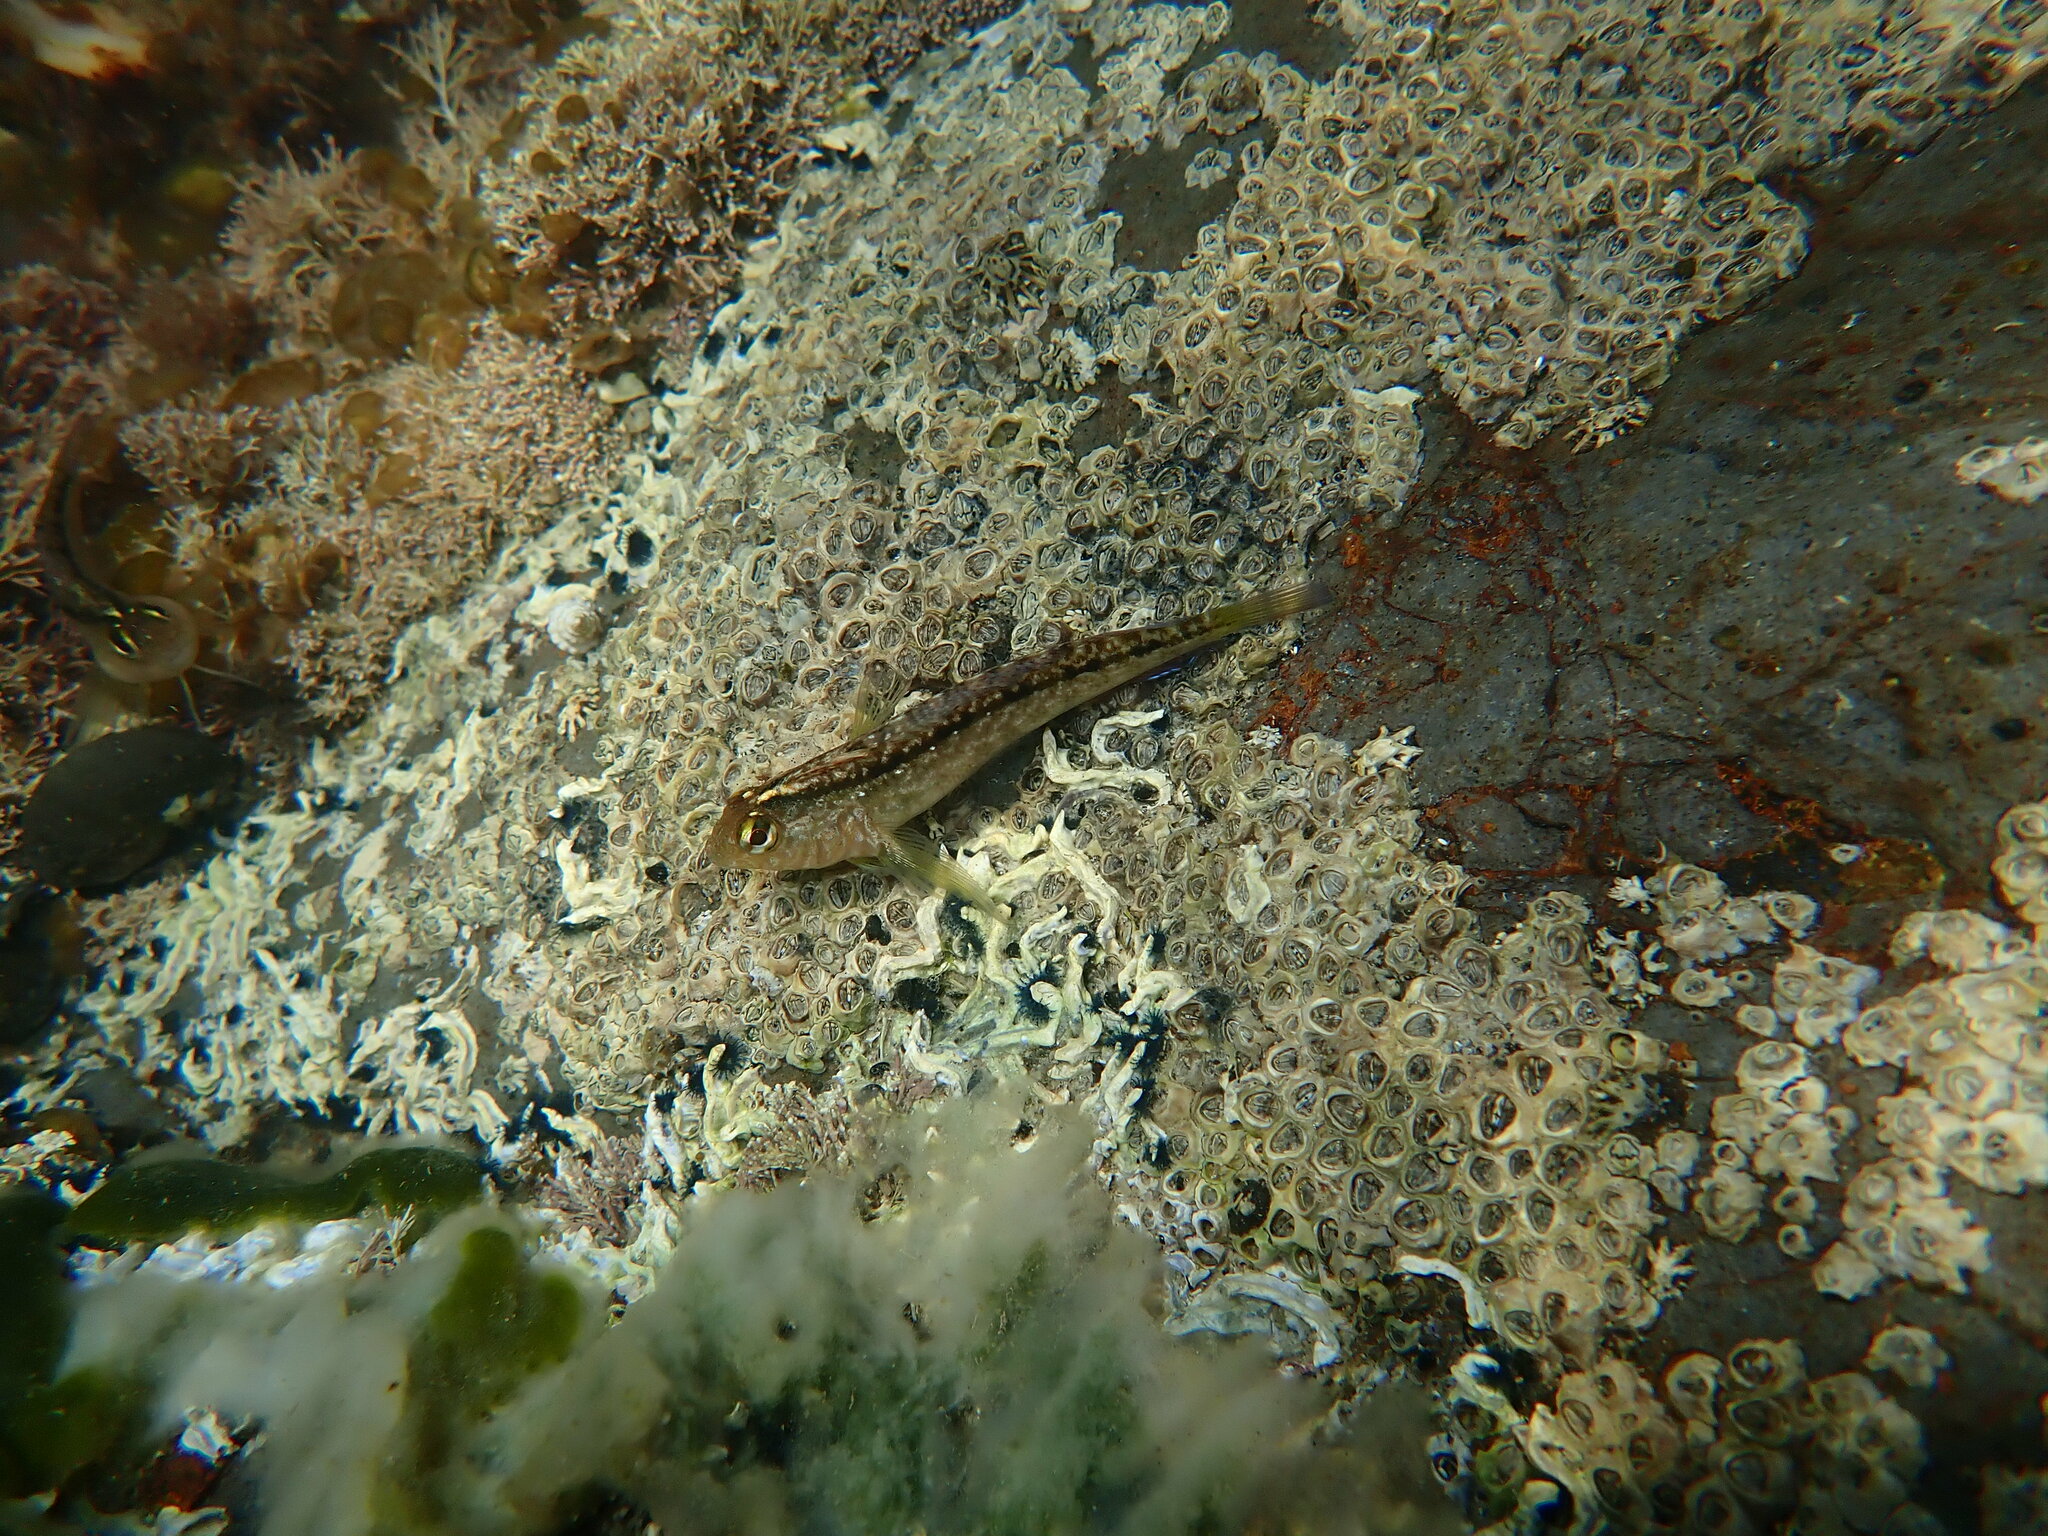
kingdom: Animalia
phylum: Chordata
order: Perciformes
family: Tripterygiidae
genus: Forsterygion
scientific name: Forsterygion lapillum
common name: Common triplefin
